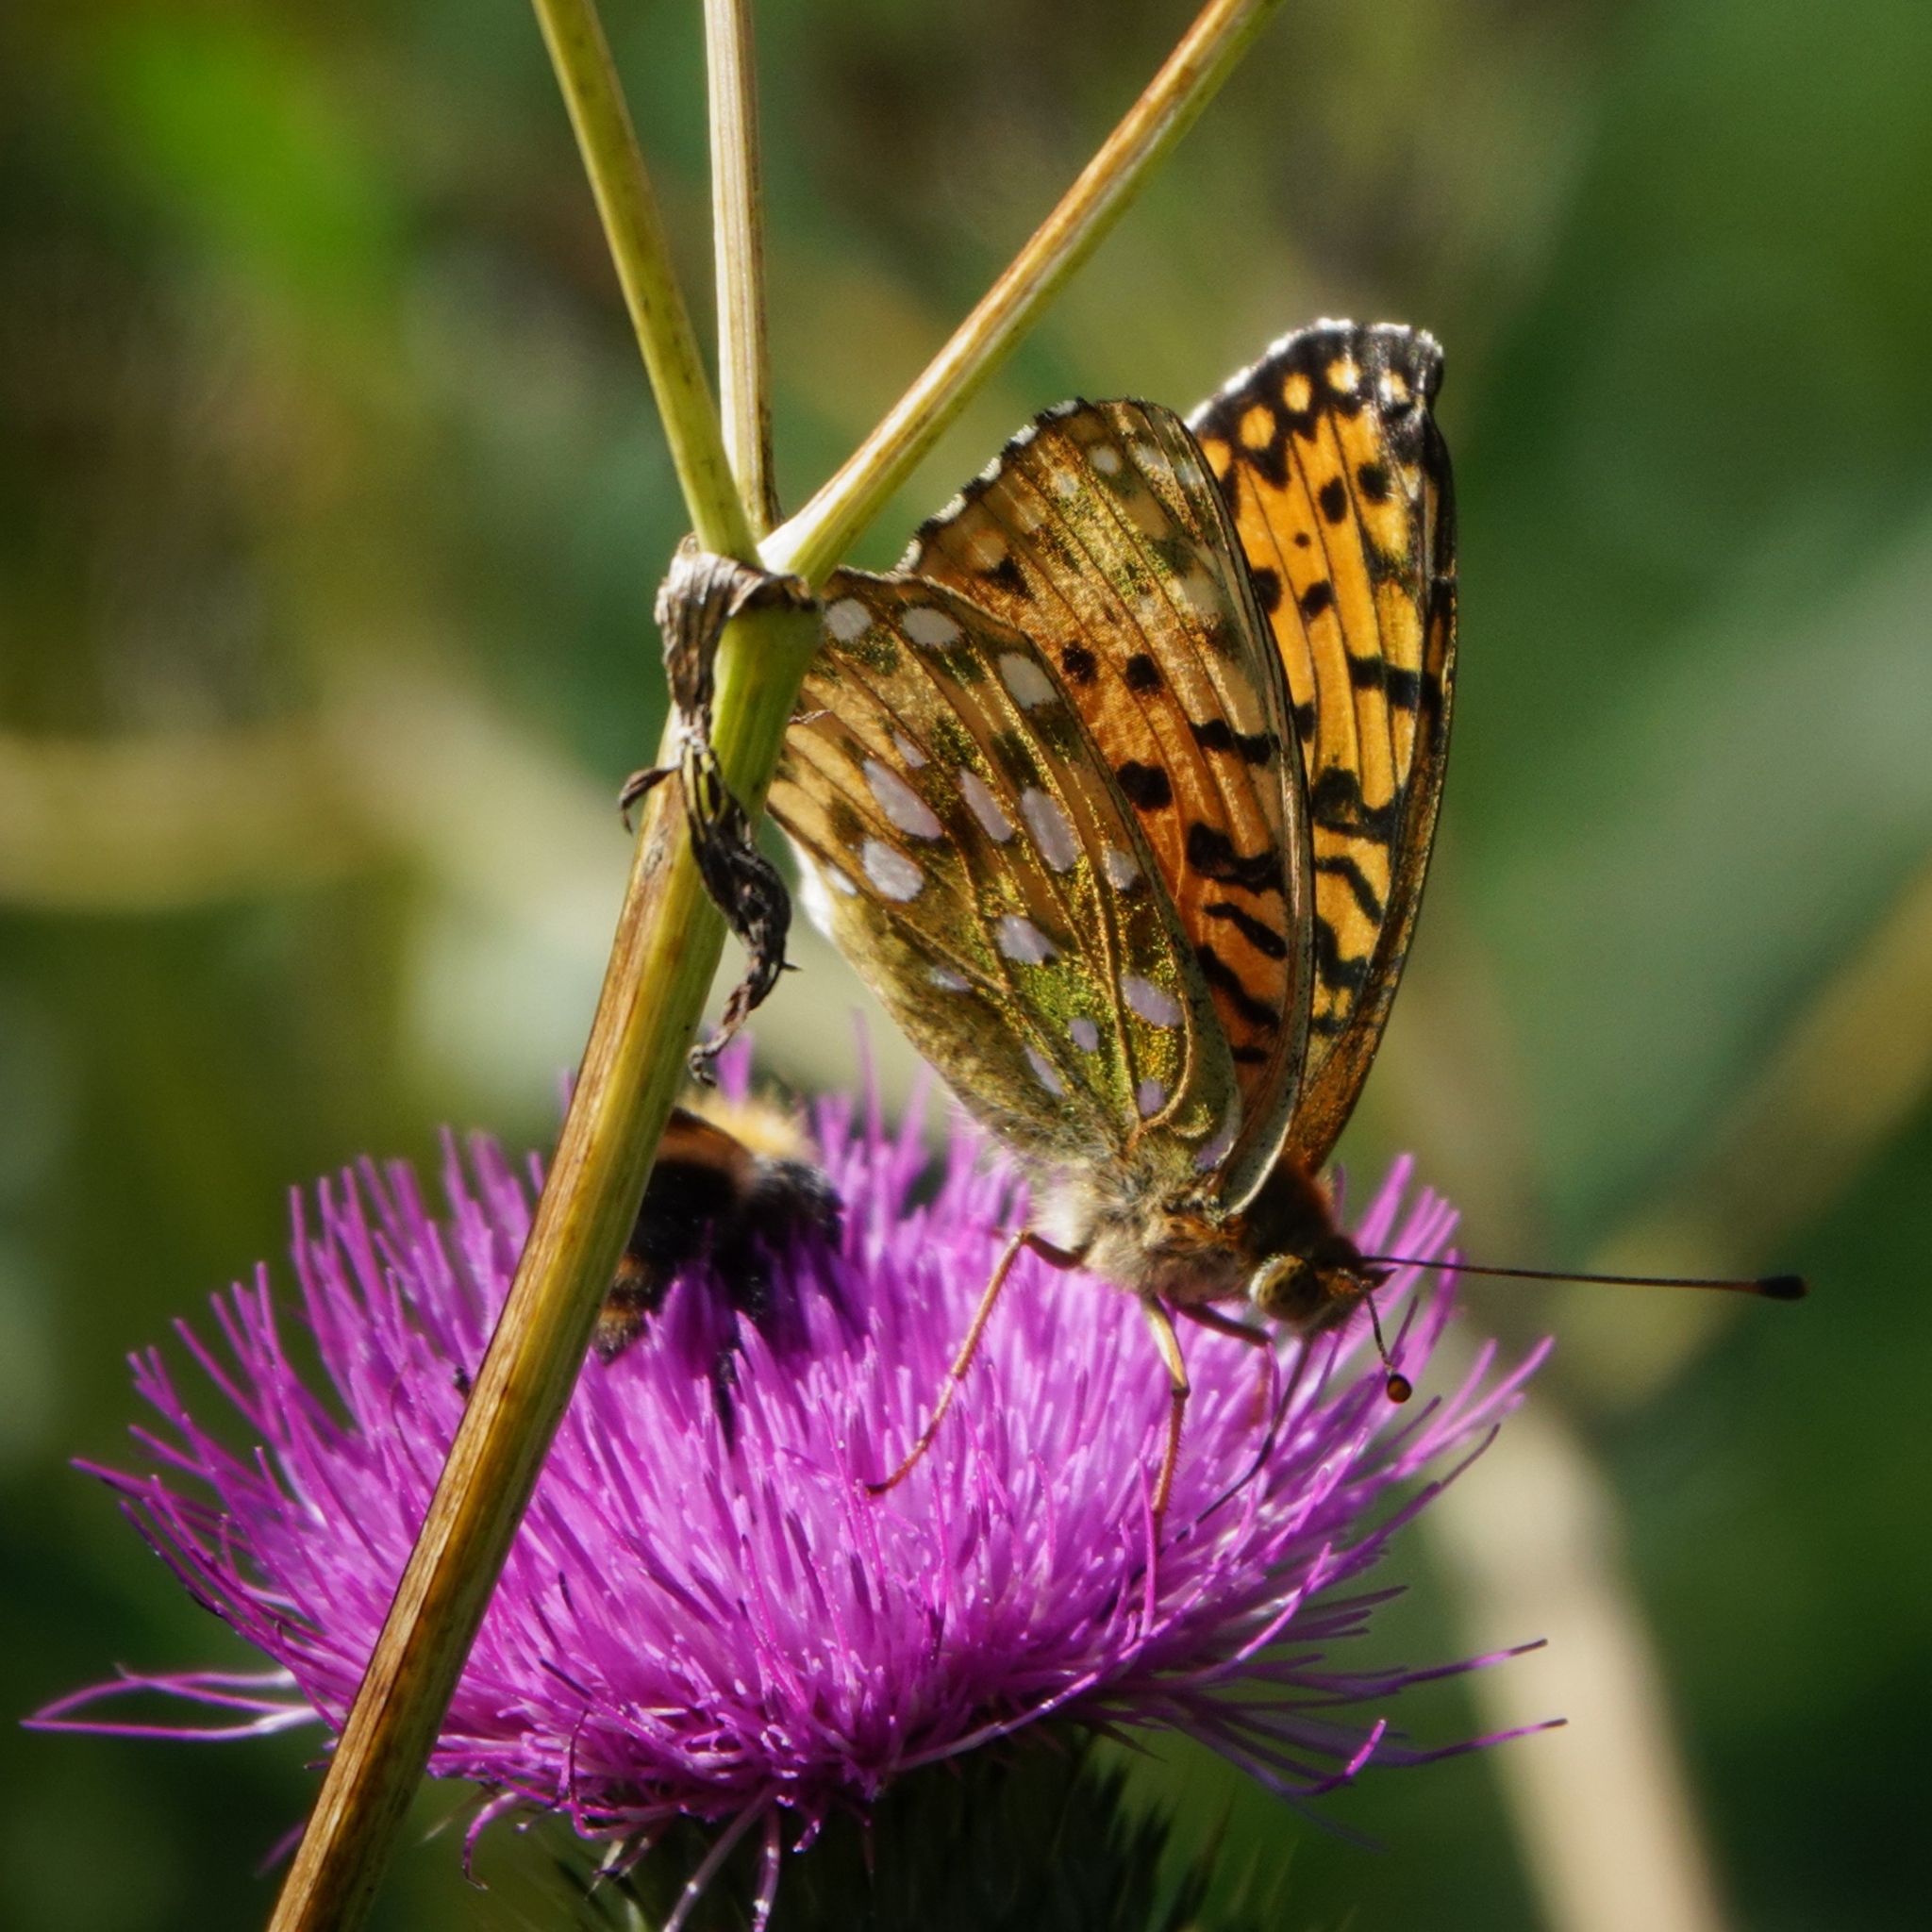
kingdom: Animalia
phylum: Arthropoda
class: Insecta
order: Lepidoptera
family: Nymphalidae
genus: Speyeria
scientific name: Speyeria aglaja
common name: Dark green fritillary
